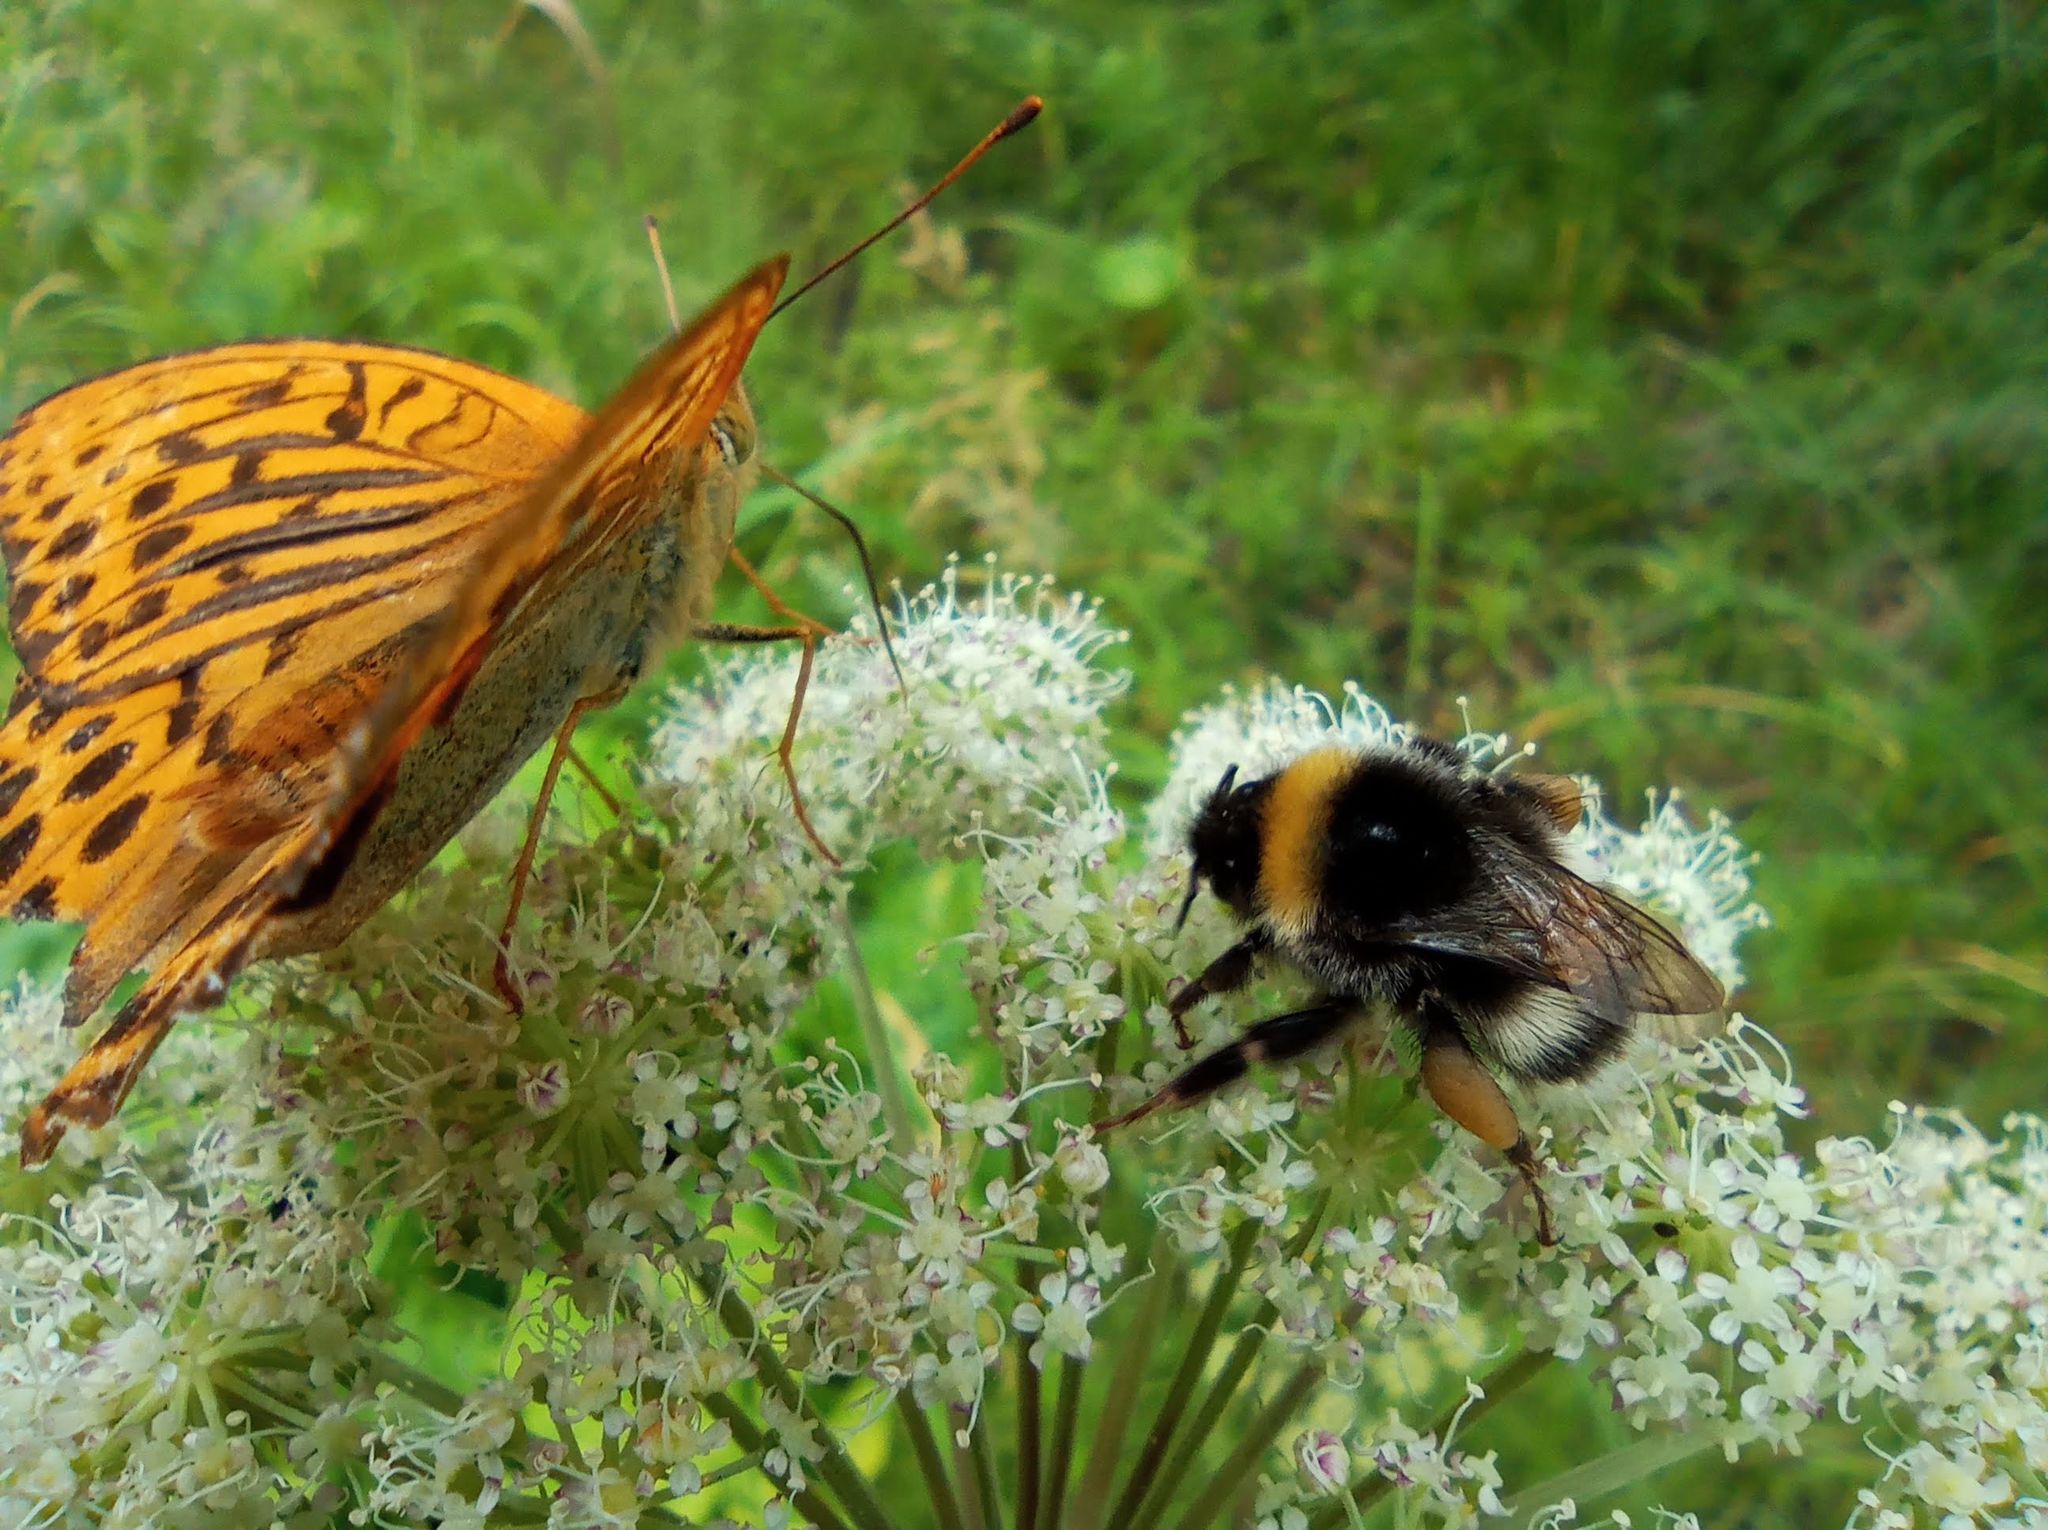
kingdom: Animalia
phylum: Arthropoda
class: Insecta
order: Hymenoptera
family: Apidae
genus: Bombus
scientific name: Bombus lucorum
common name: White-tailed bumblebee
